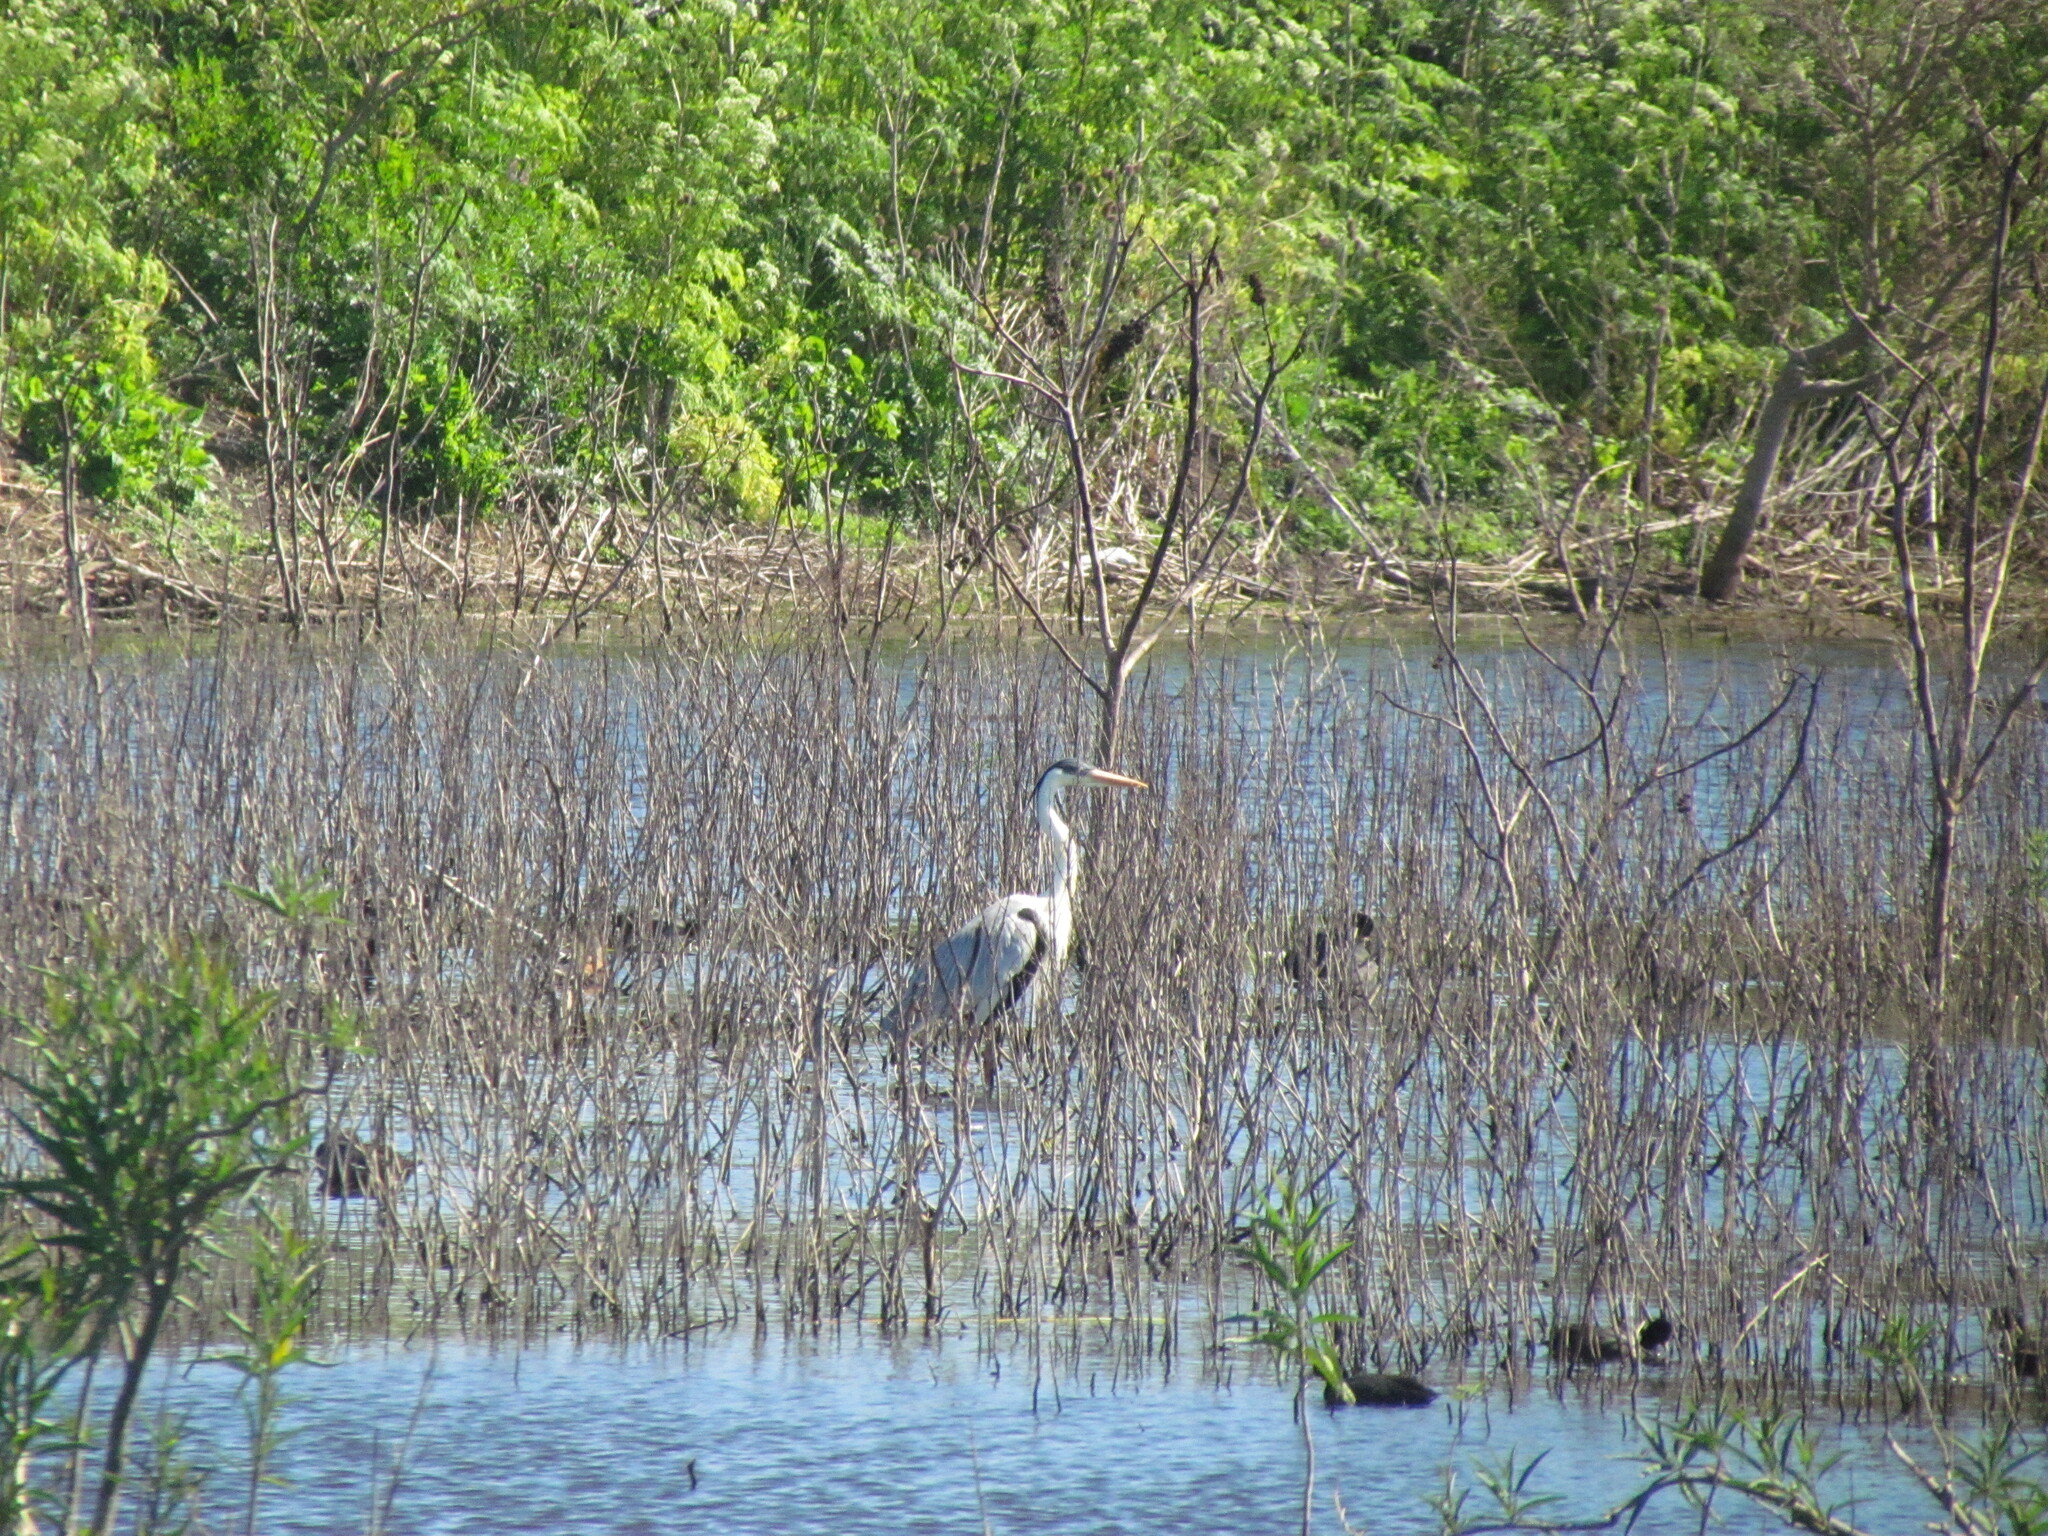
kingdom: Animalia
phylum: Chordata
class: Aves
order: Pelecaniformes
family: Ardeidae
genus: Ardea
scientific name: Ardea cocoi
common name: Cocoi heron
